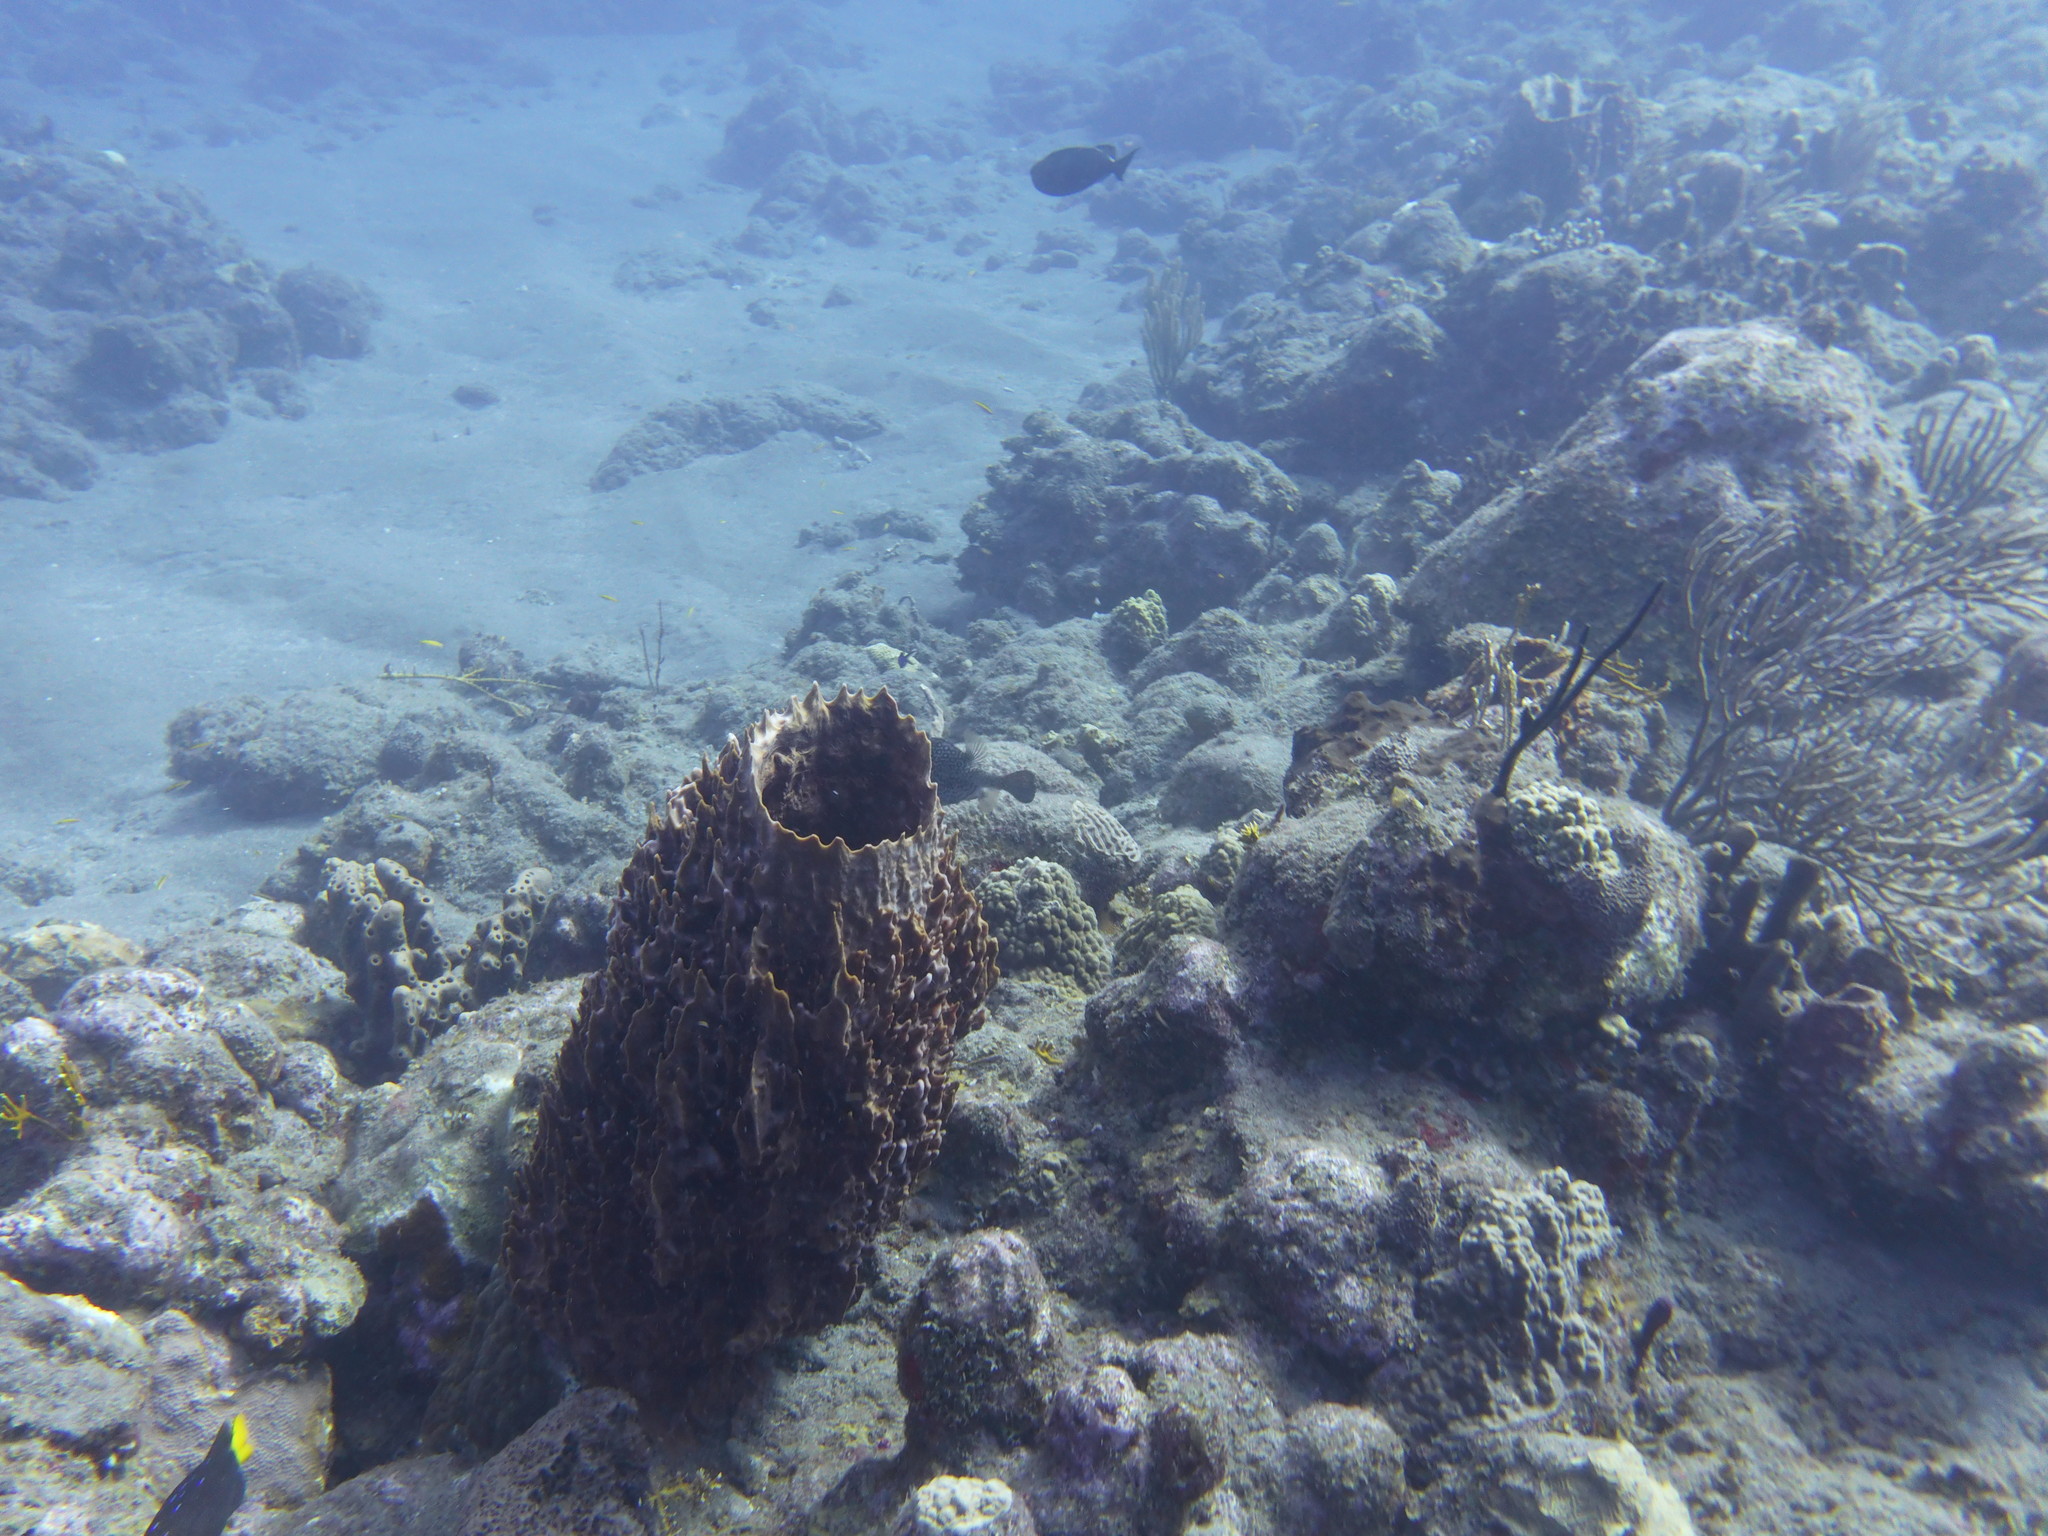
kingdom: Animalia
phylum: Porifera
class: Demospongiae
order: Haplosclerida
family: Petrosiidae
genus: Xestospongia
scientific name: Xestospongia muta
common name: Giant barrel sponge
